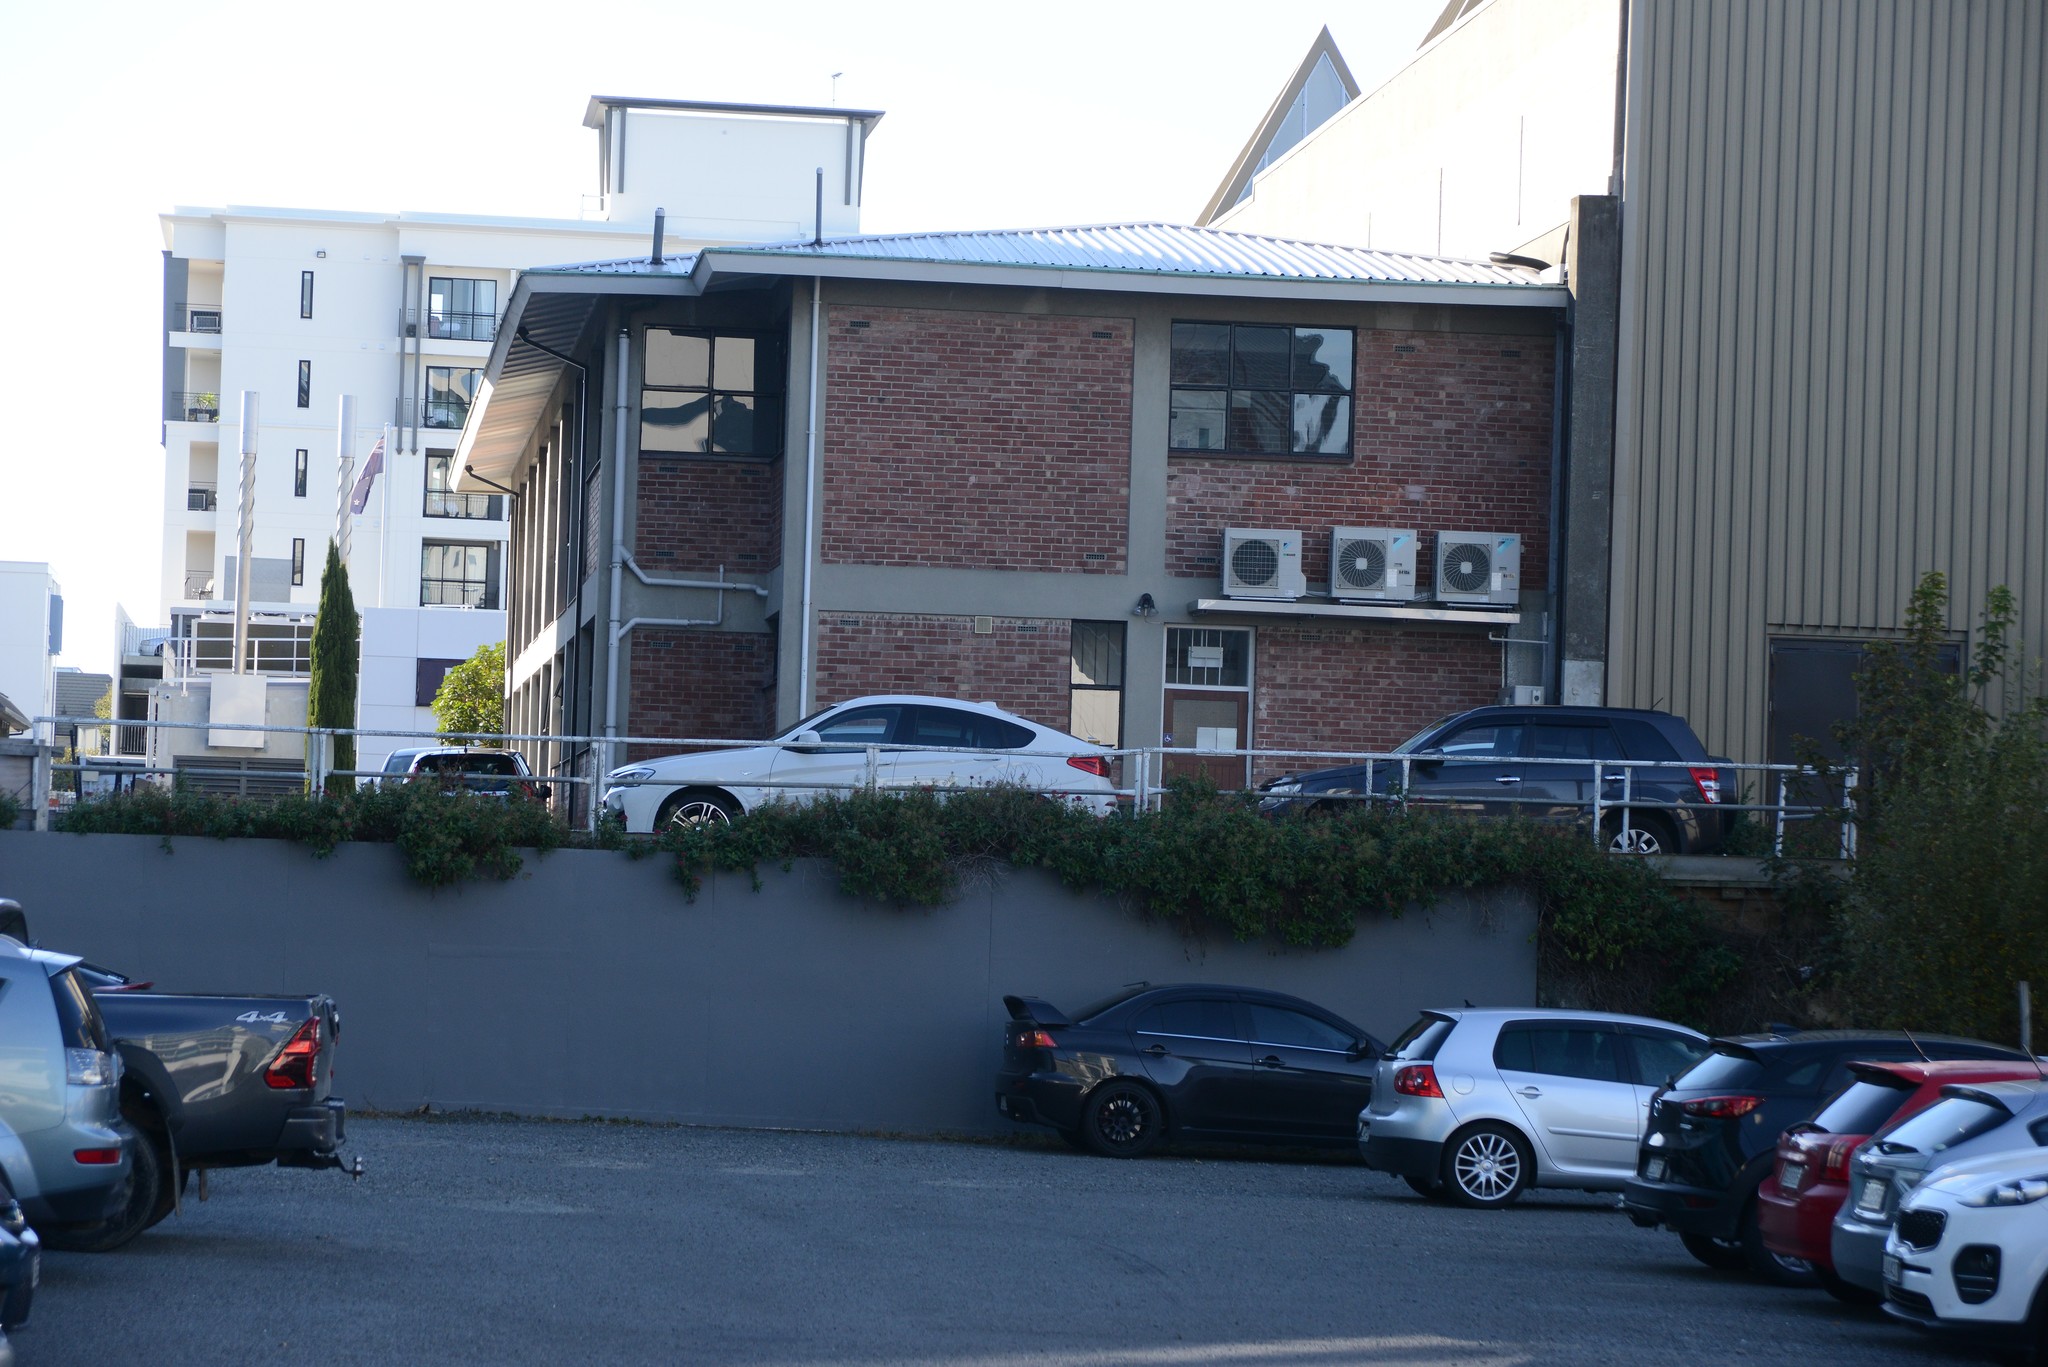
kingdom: Plantae
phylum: Tracheophyta
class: Magnoliopsida
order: Dipsacales
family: Caprifoliaceae
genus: Centranthus
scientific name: Centranthus ruber
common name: Red valerian
